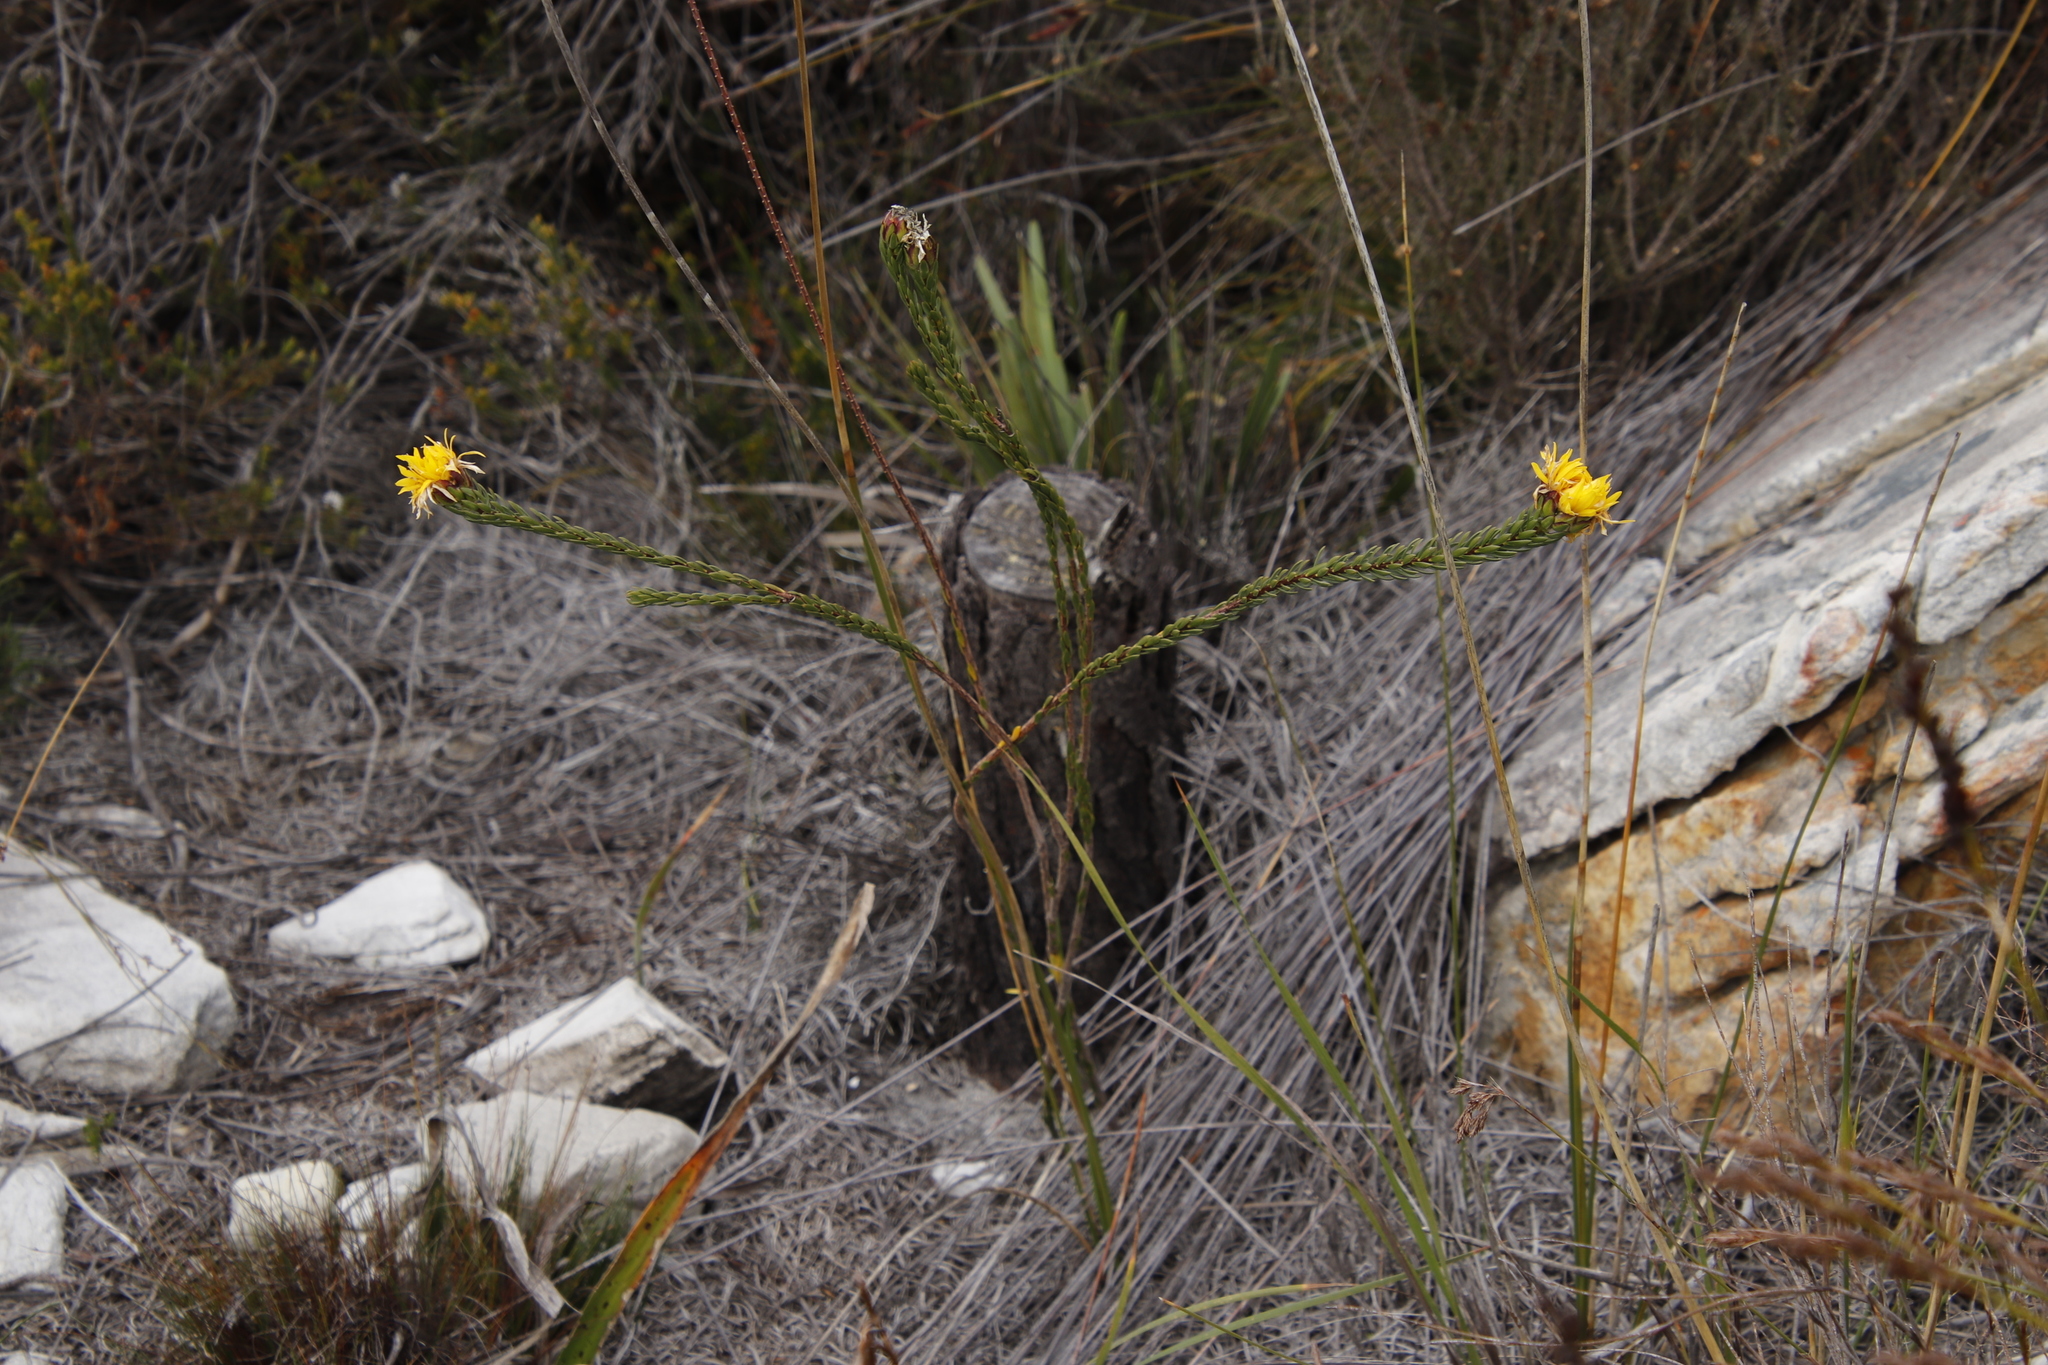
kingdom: Plantae
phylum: Tracheophyta
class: Magnoliopsida
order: Malvales
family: Thymelaeaceae
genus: Lachnaea
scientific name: Lachnaea aurea
